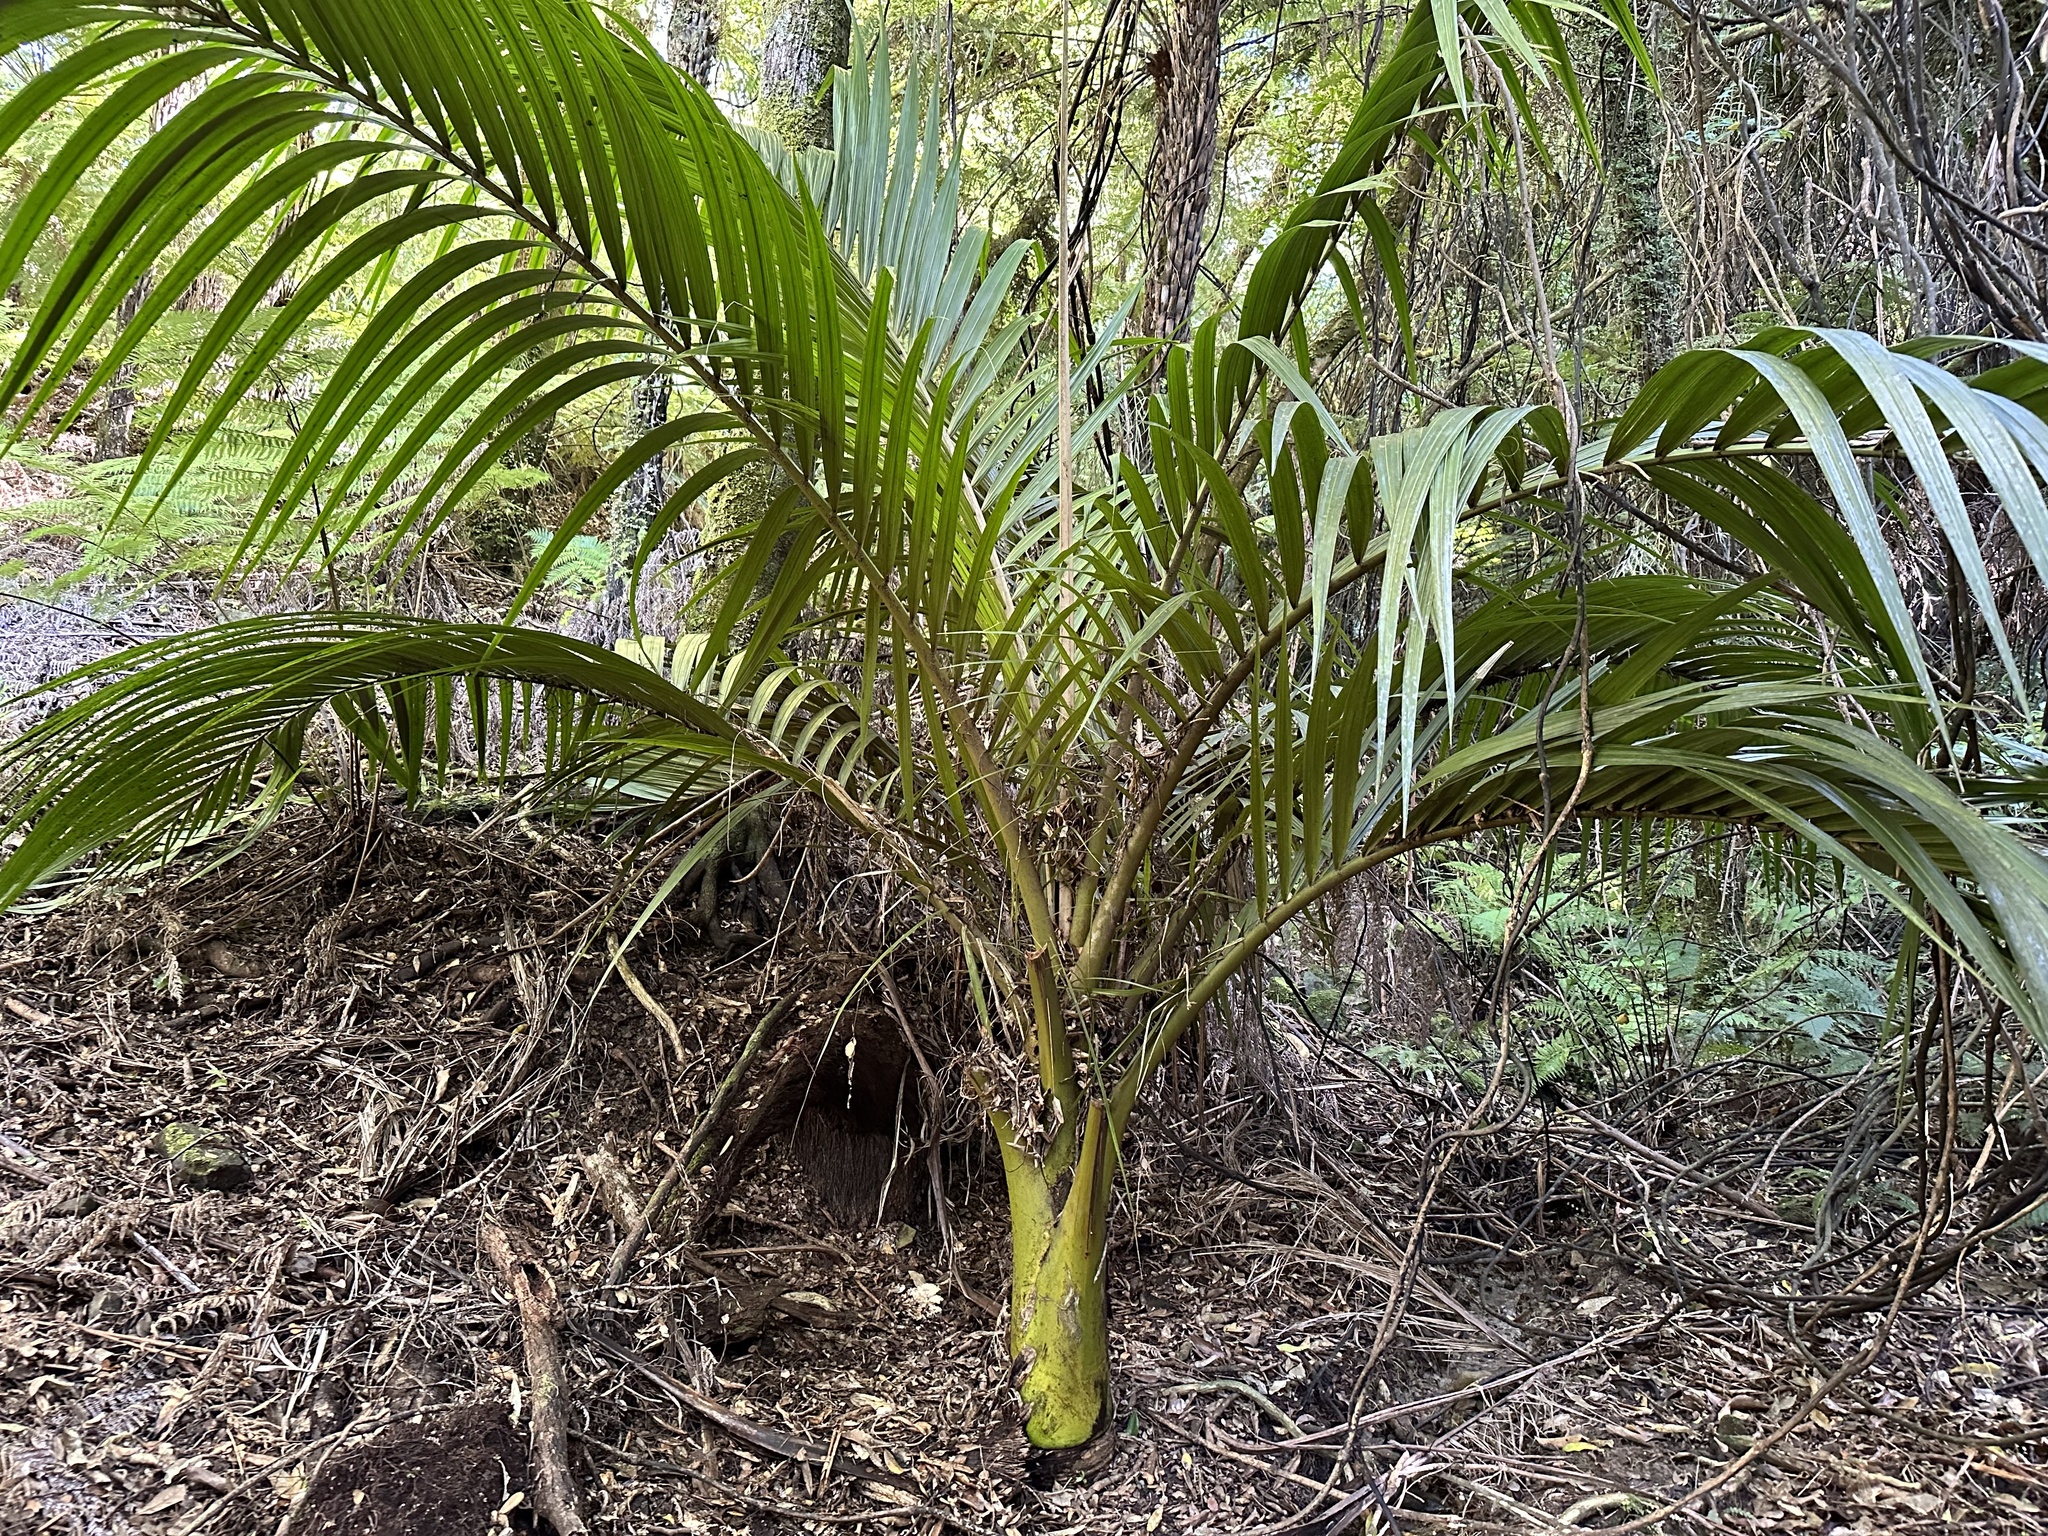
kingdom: Plantae
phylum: Tracheophyta
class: Liliopsida
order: Arecales
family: Arecaceae
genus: Rhopalostylis
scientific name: Rhopalostylis sapida
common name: Feather-duster palm
